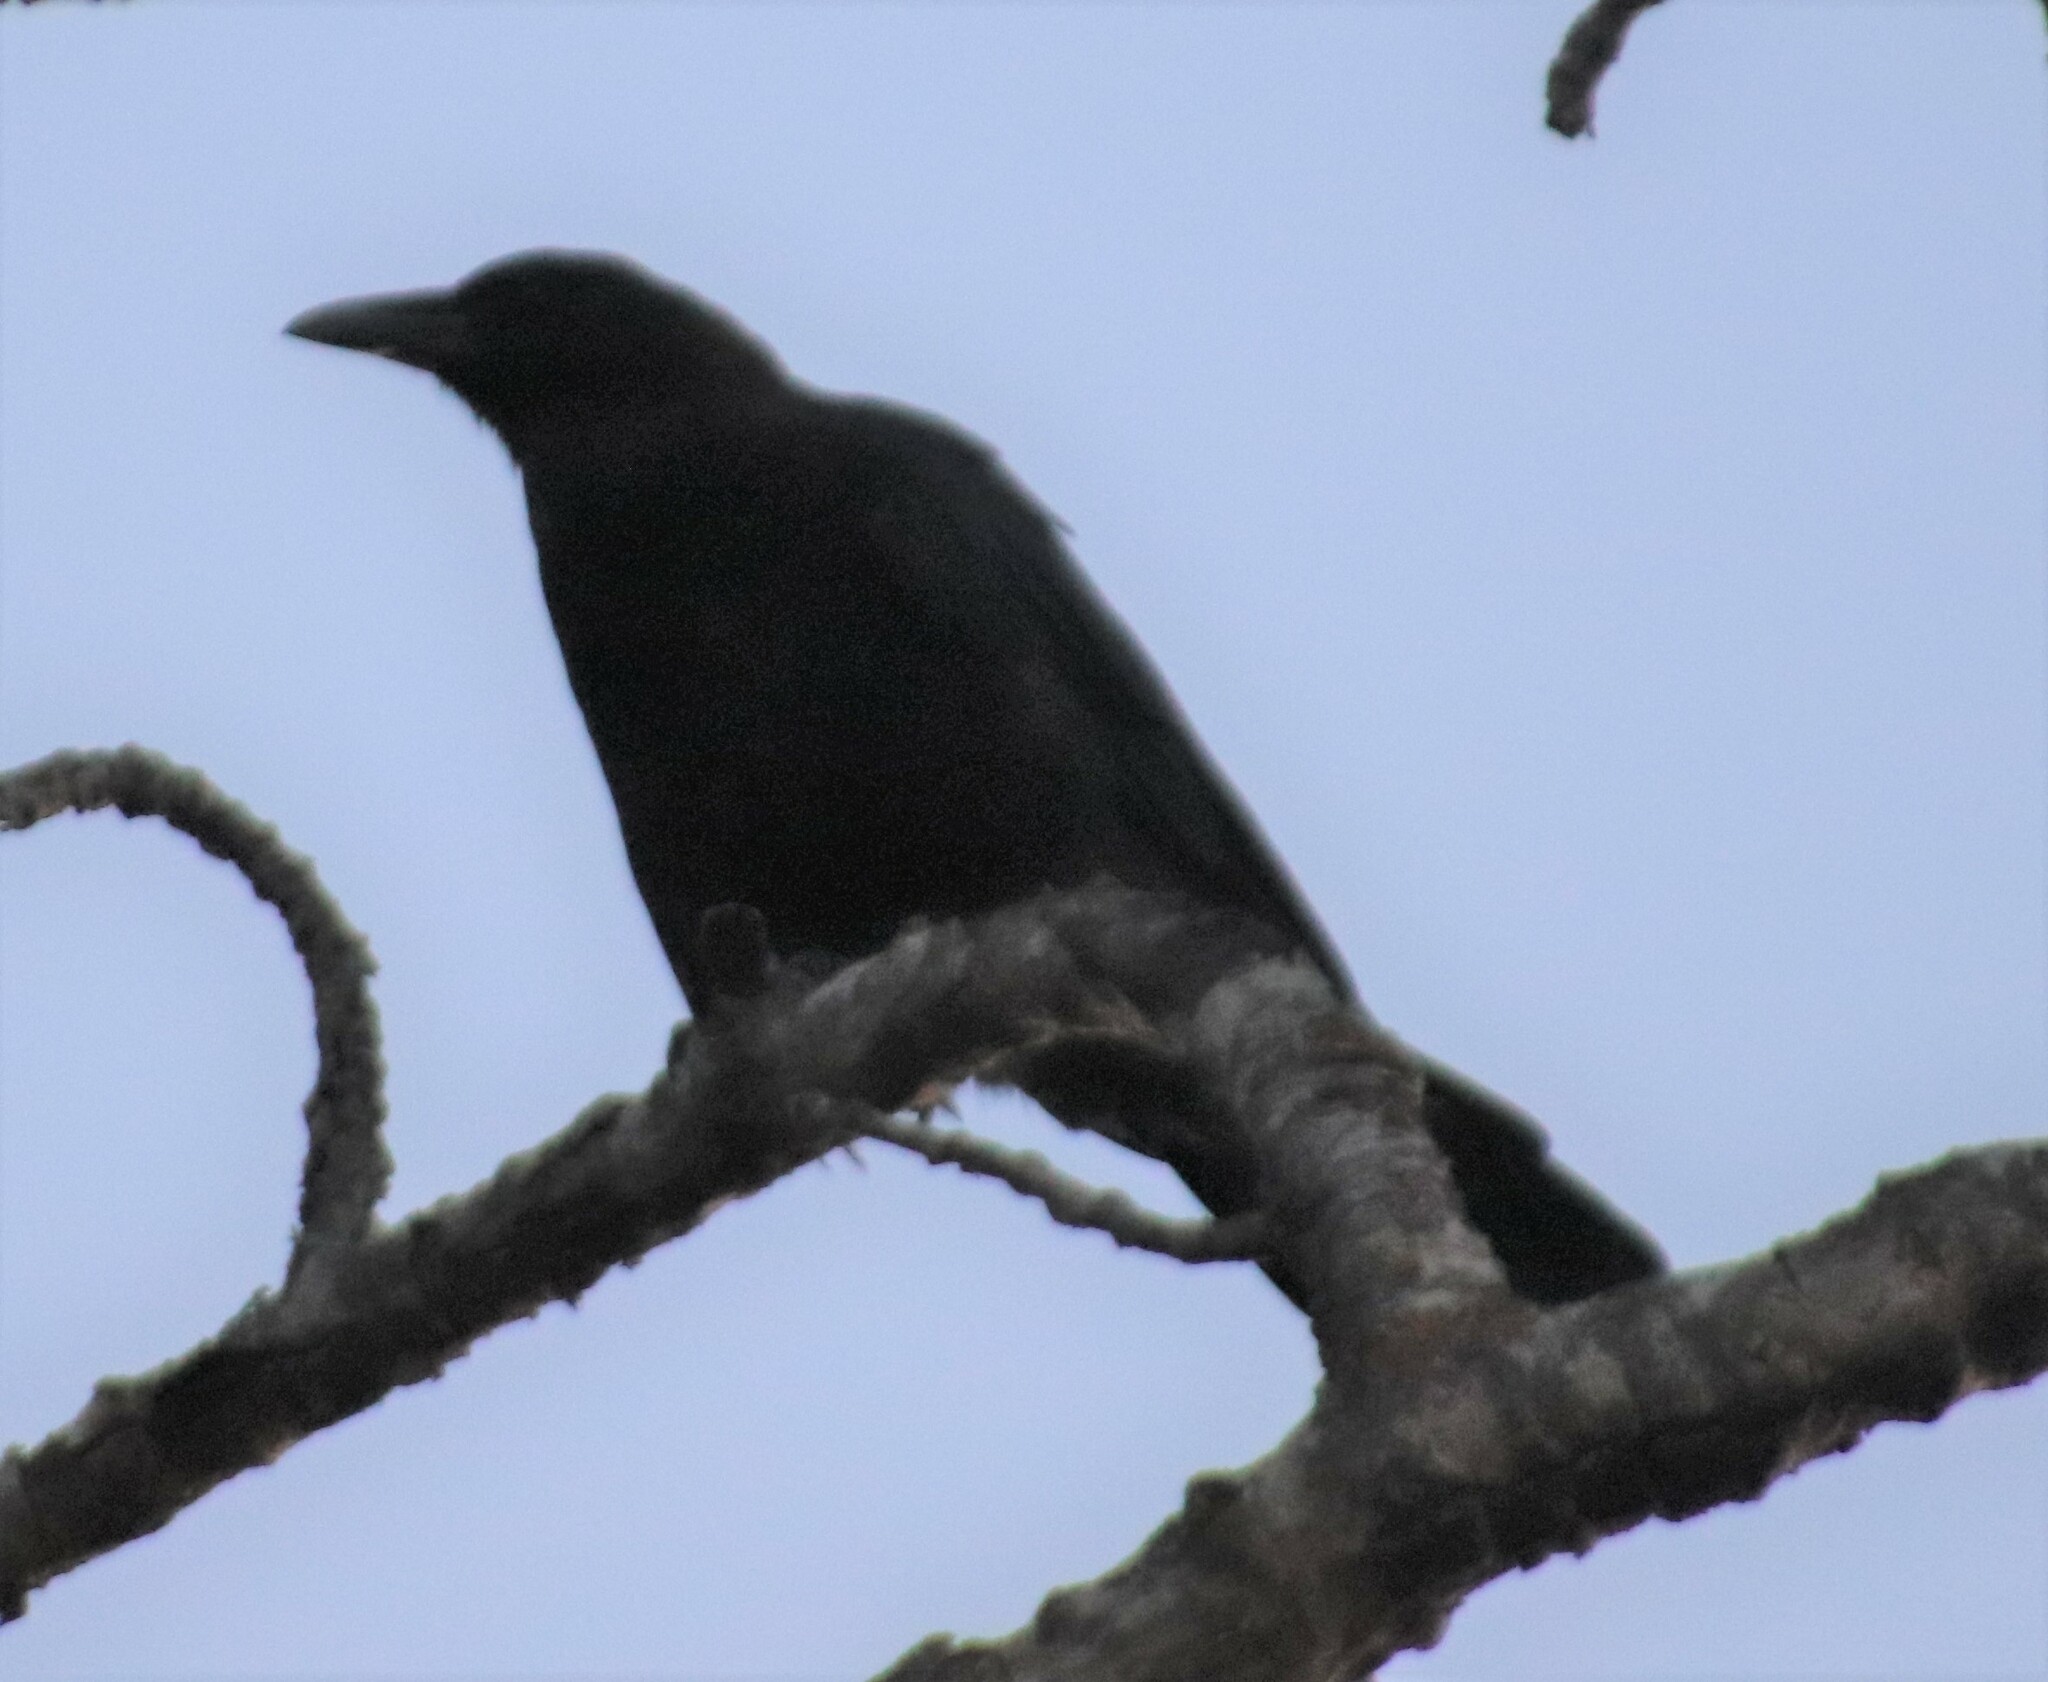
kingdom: Animalia
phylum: Chordata
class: Aves
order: Passeriformes
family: Corvidae
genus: Corvus
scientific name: Corvus brachyrhynchos
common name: American crow
